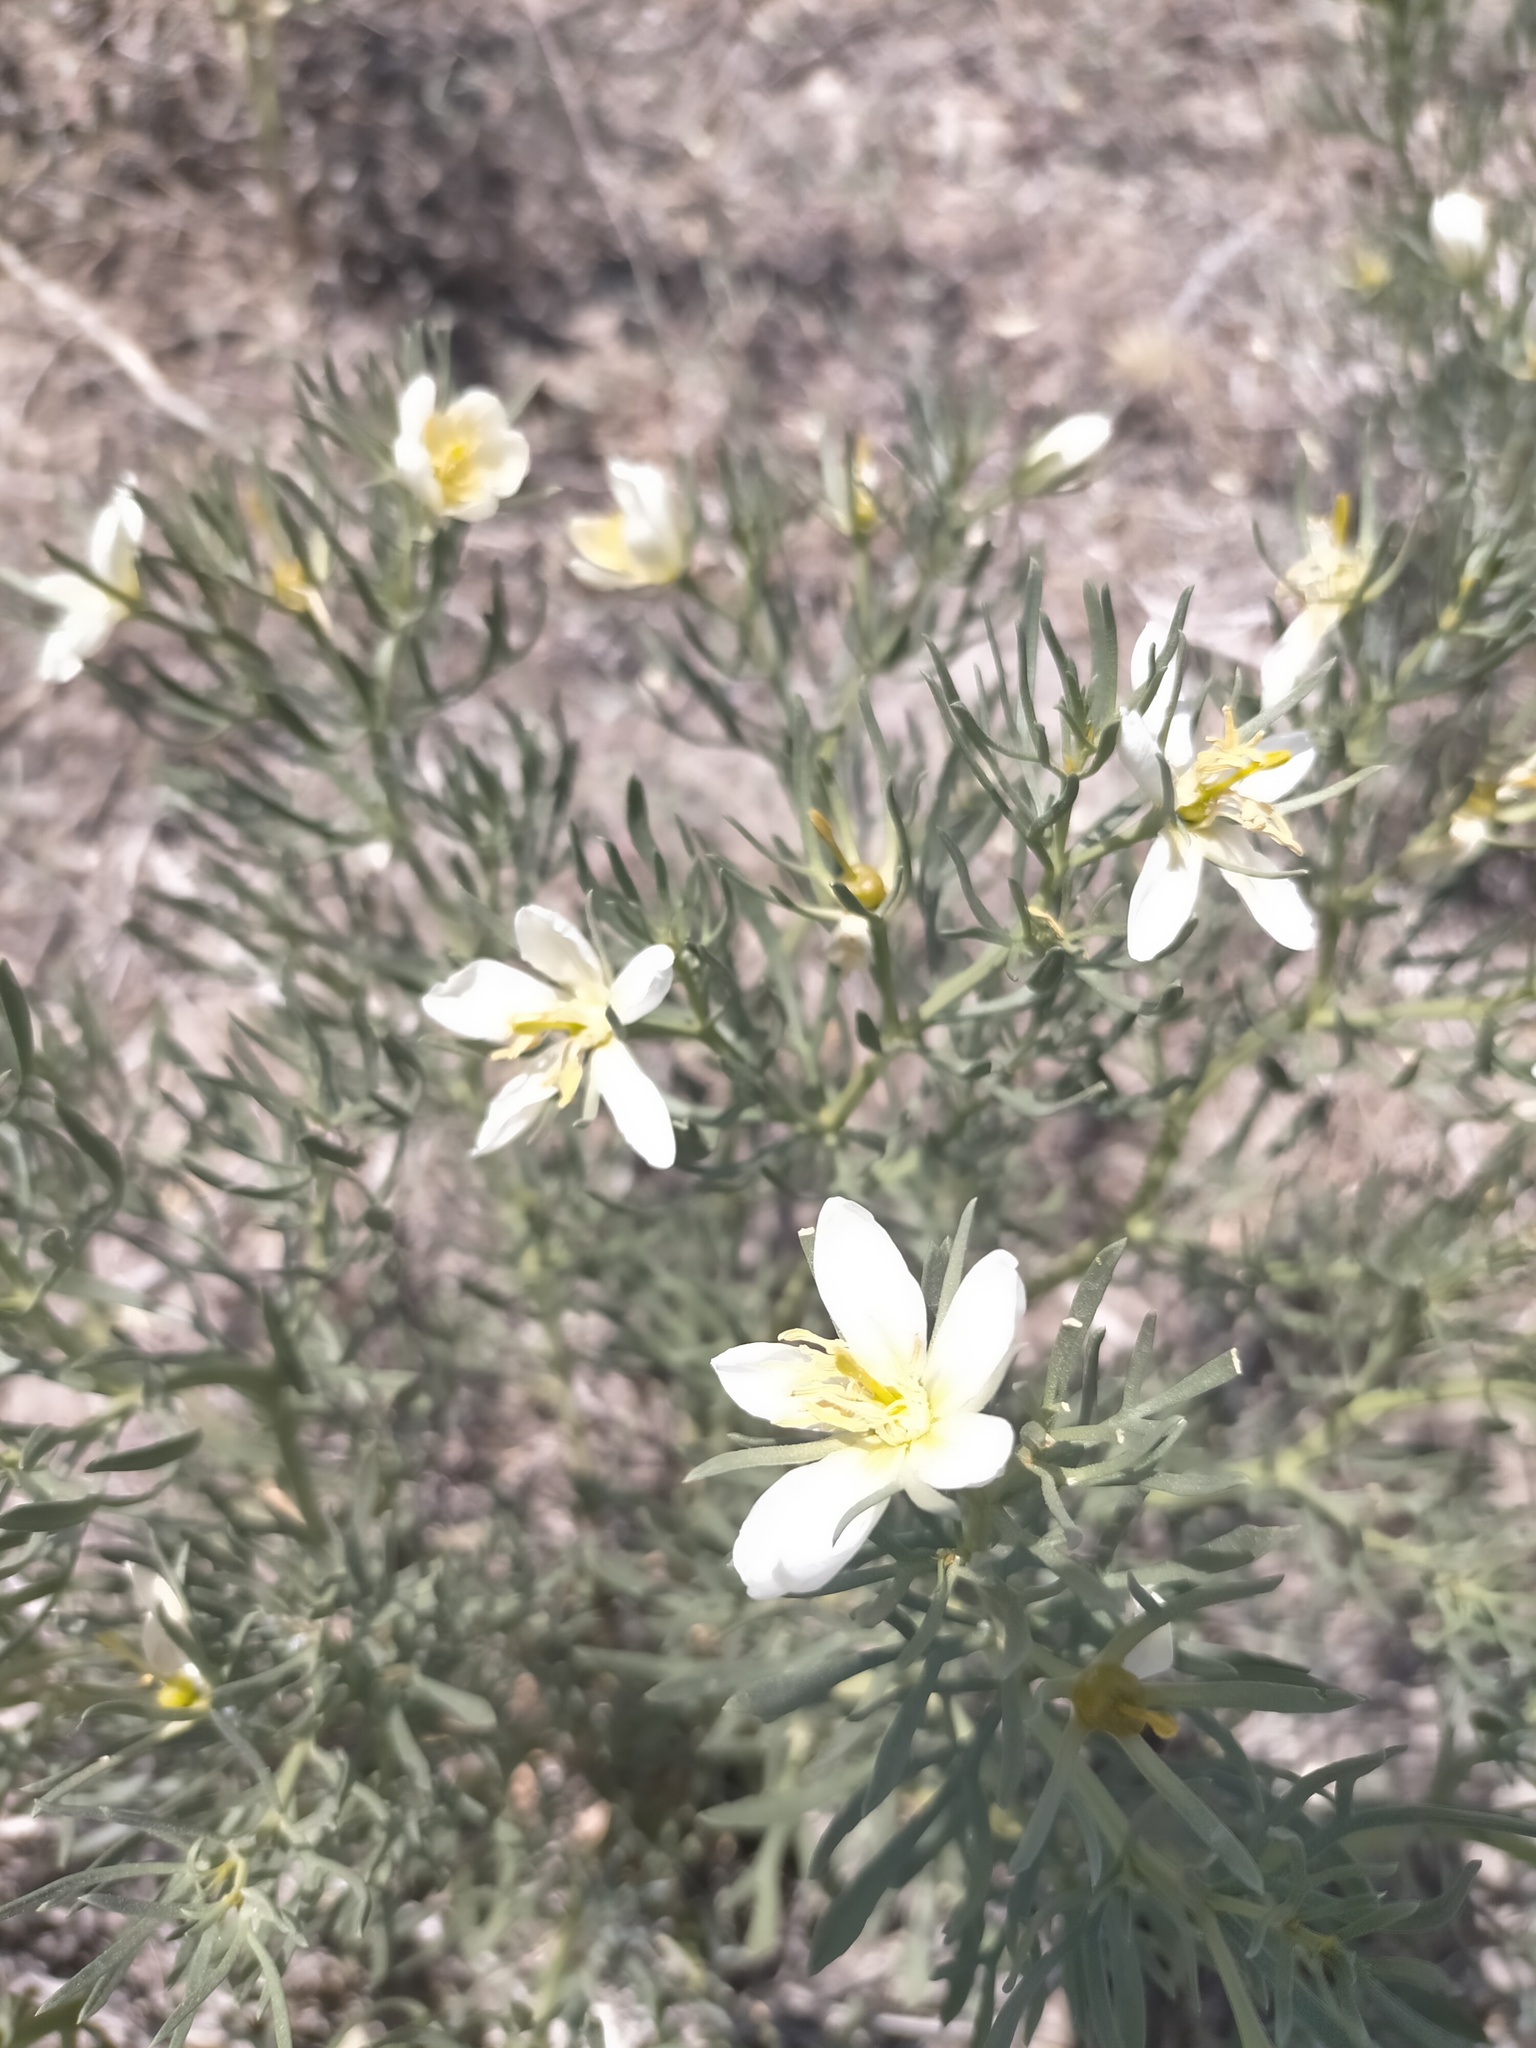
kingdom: Plantae
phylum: Tracheophyta
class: Magnoliopsida
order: Sapindales
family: Tetradiclidaceae
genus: Peganum
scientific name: Peganum harmala
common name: Harmal peganum
